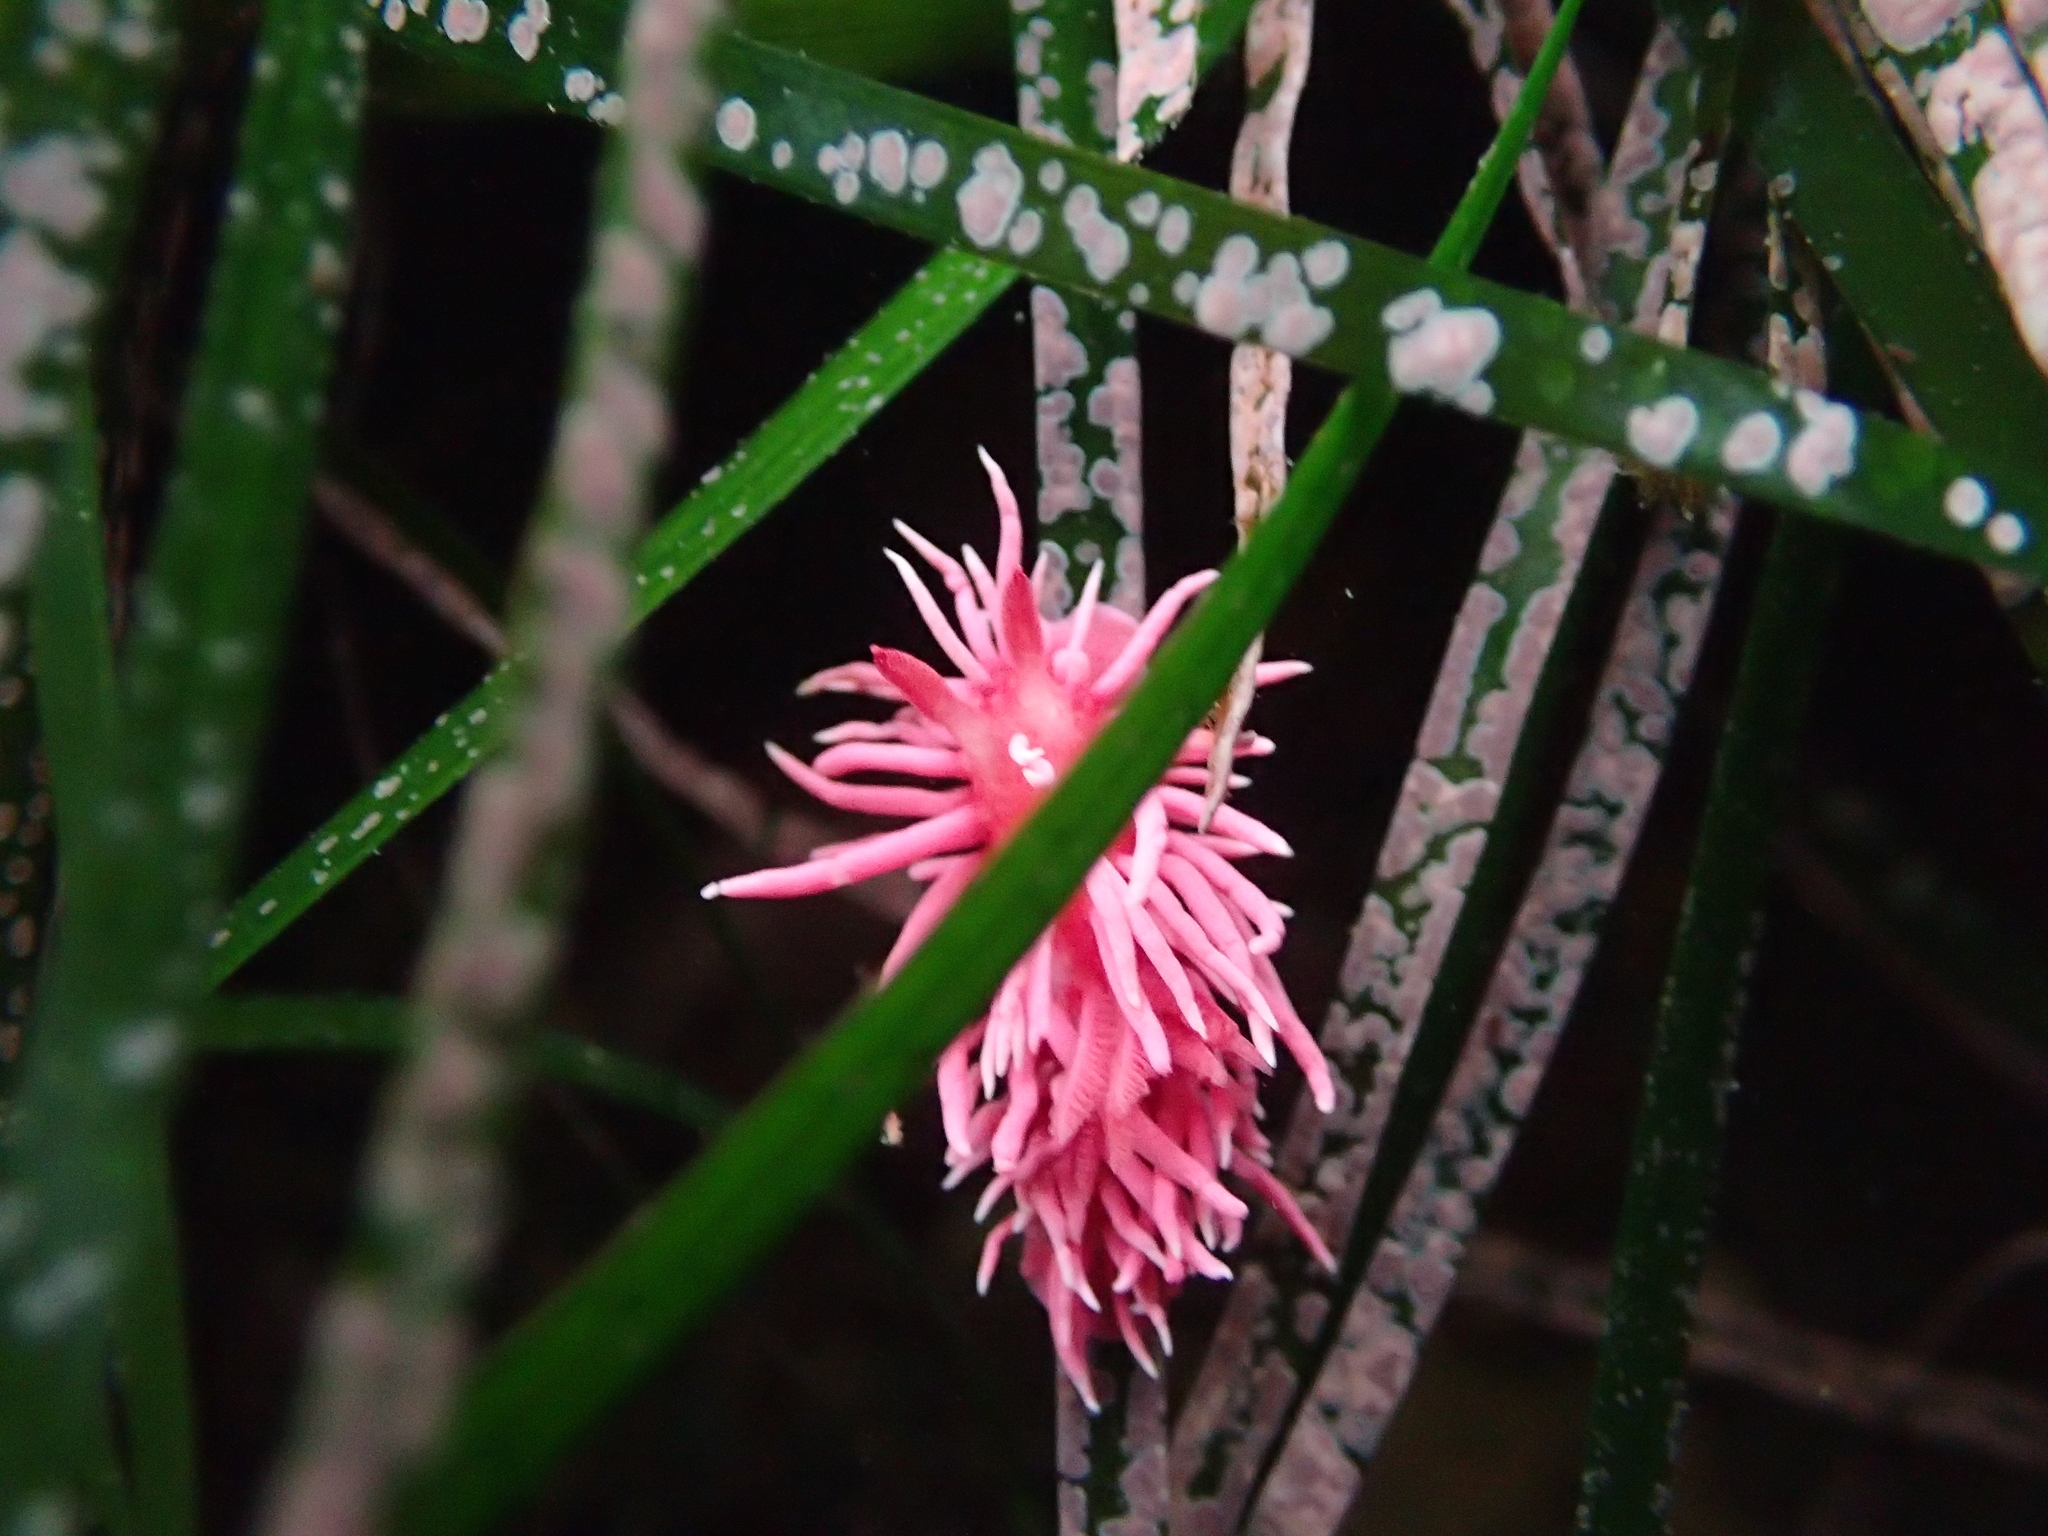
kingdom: Animalia
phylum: Mollusca
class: Gastropoda
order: Nudibranchia
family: Goniodorididae
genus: Okenia
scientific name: Okenia
